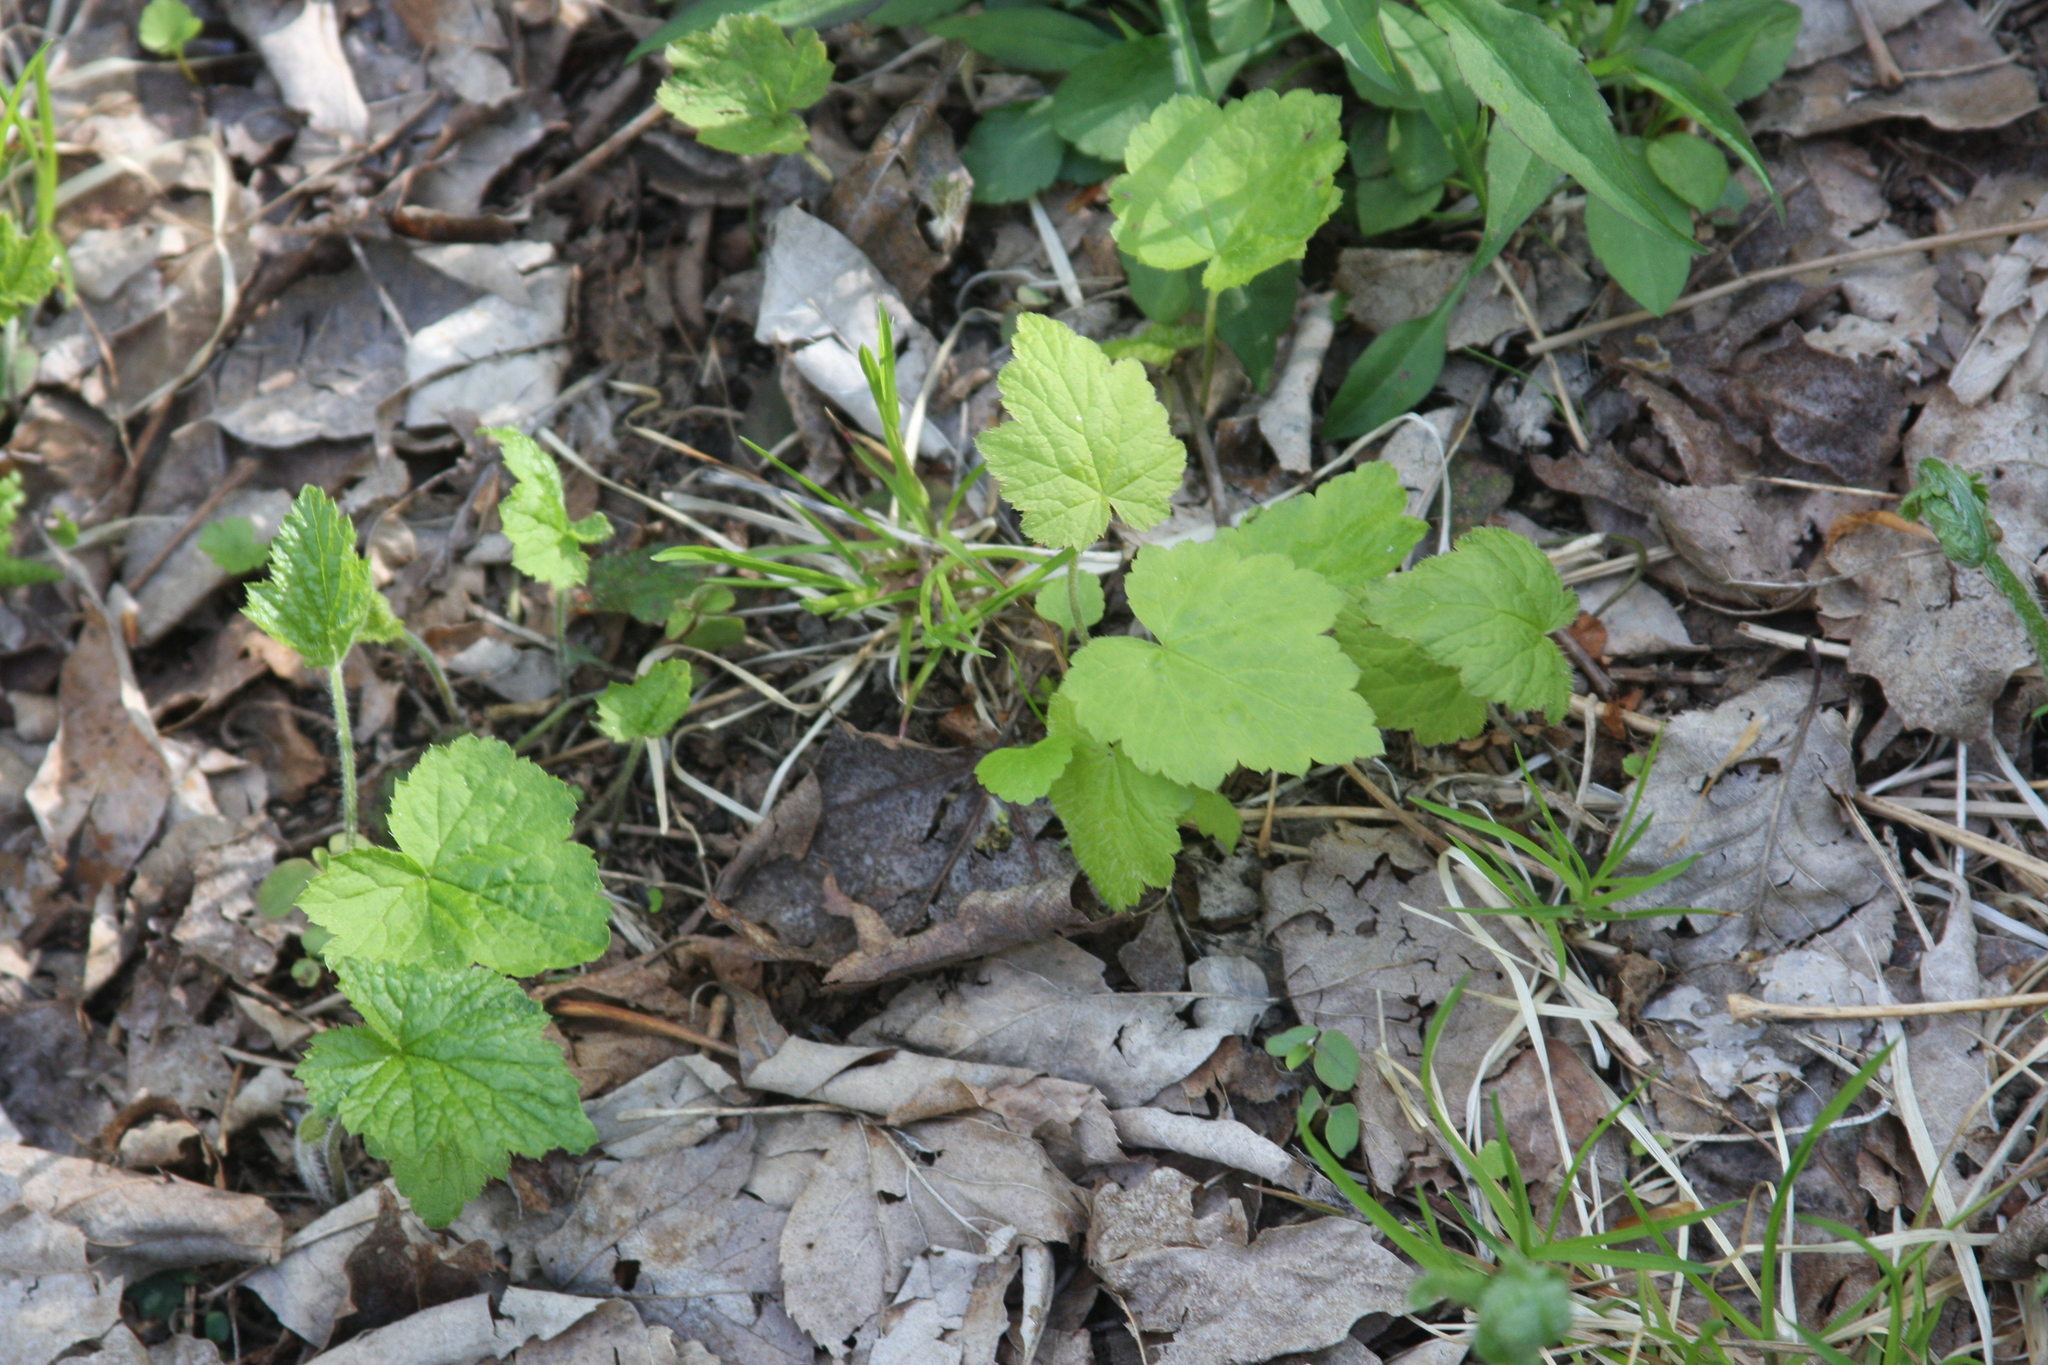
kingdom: Plantae
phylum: Tracheophyta
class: Magnoliopsida
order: Saxifragales
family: Saxifragaceae
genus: Tiarella
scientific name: Tiarella stolonifera
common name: Stoloniferous foamflower
